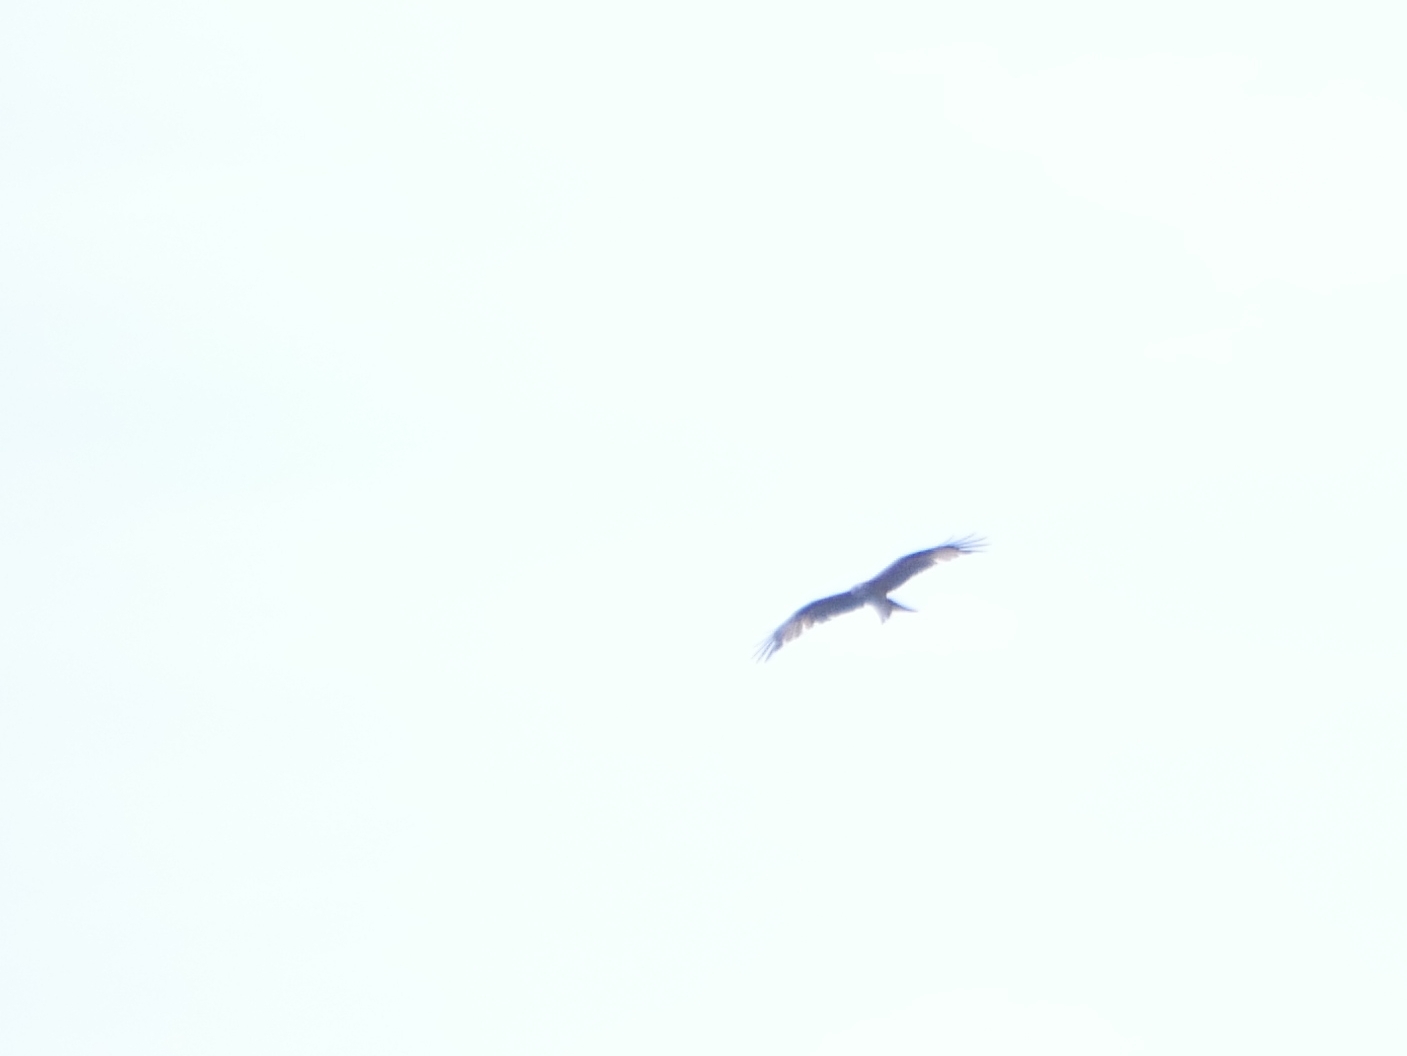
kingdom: Animalia
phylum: Chordata
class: Aves
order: Accipitriformes
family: Accipitridae
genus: Milvus
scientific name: Milvus milvus
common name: Red kite
